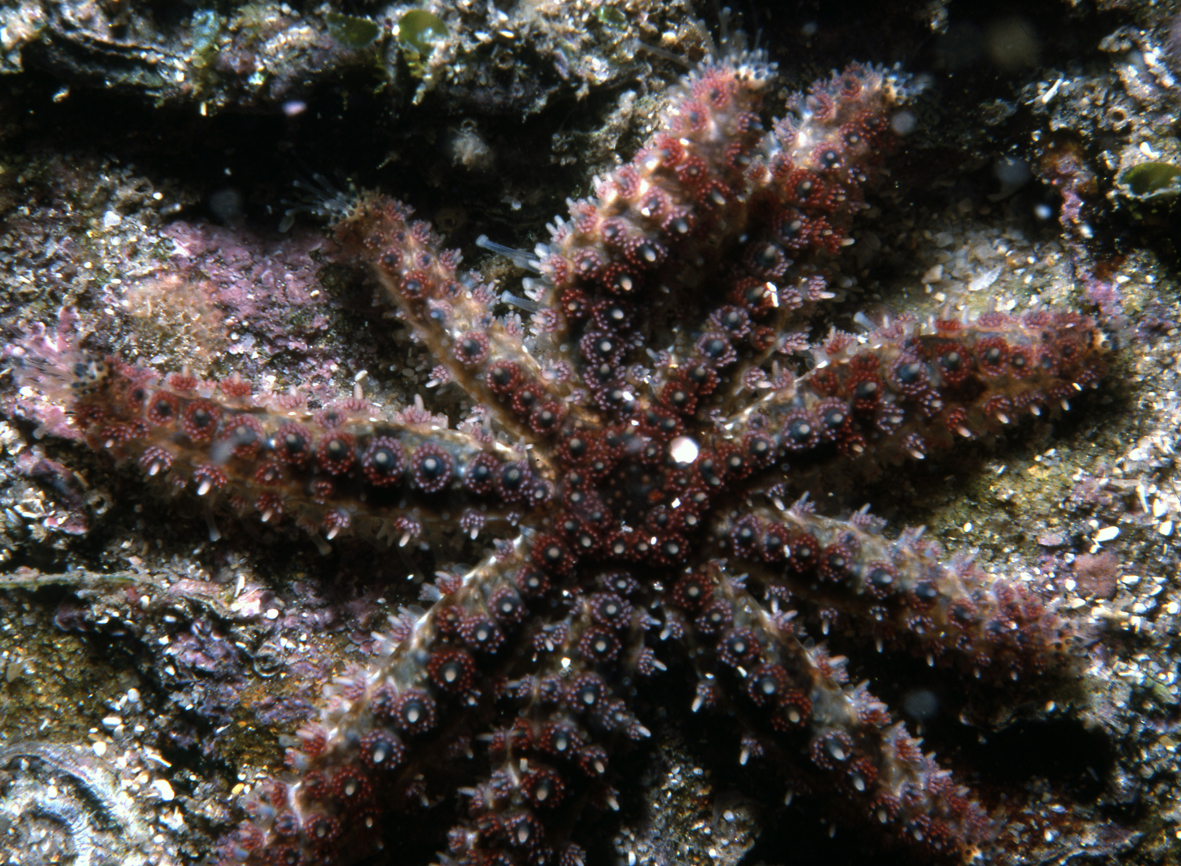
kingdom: Animalia
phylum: Echinodermata
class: Asteroidea
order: Forcipulatida
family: Asteriidae
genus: Coscinasterias
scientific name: Coscinasterias muricata
